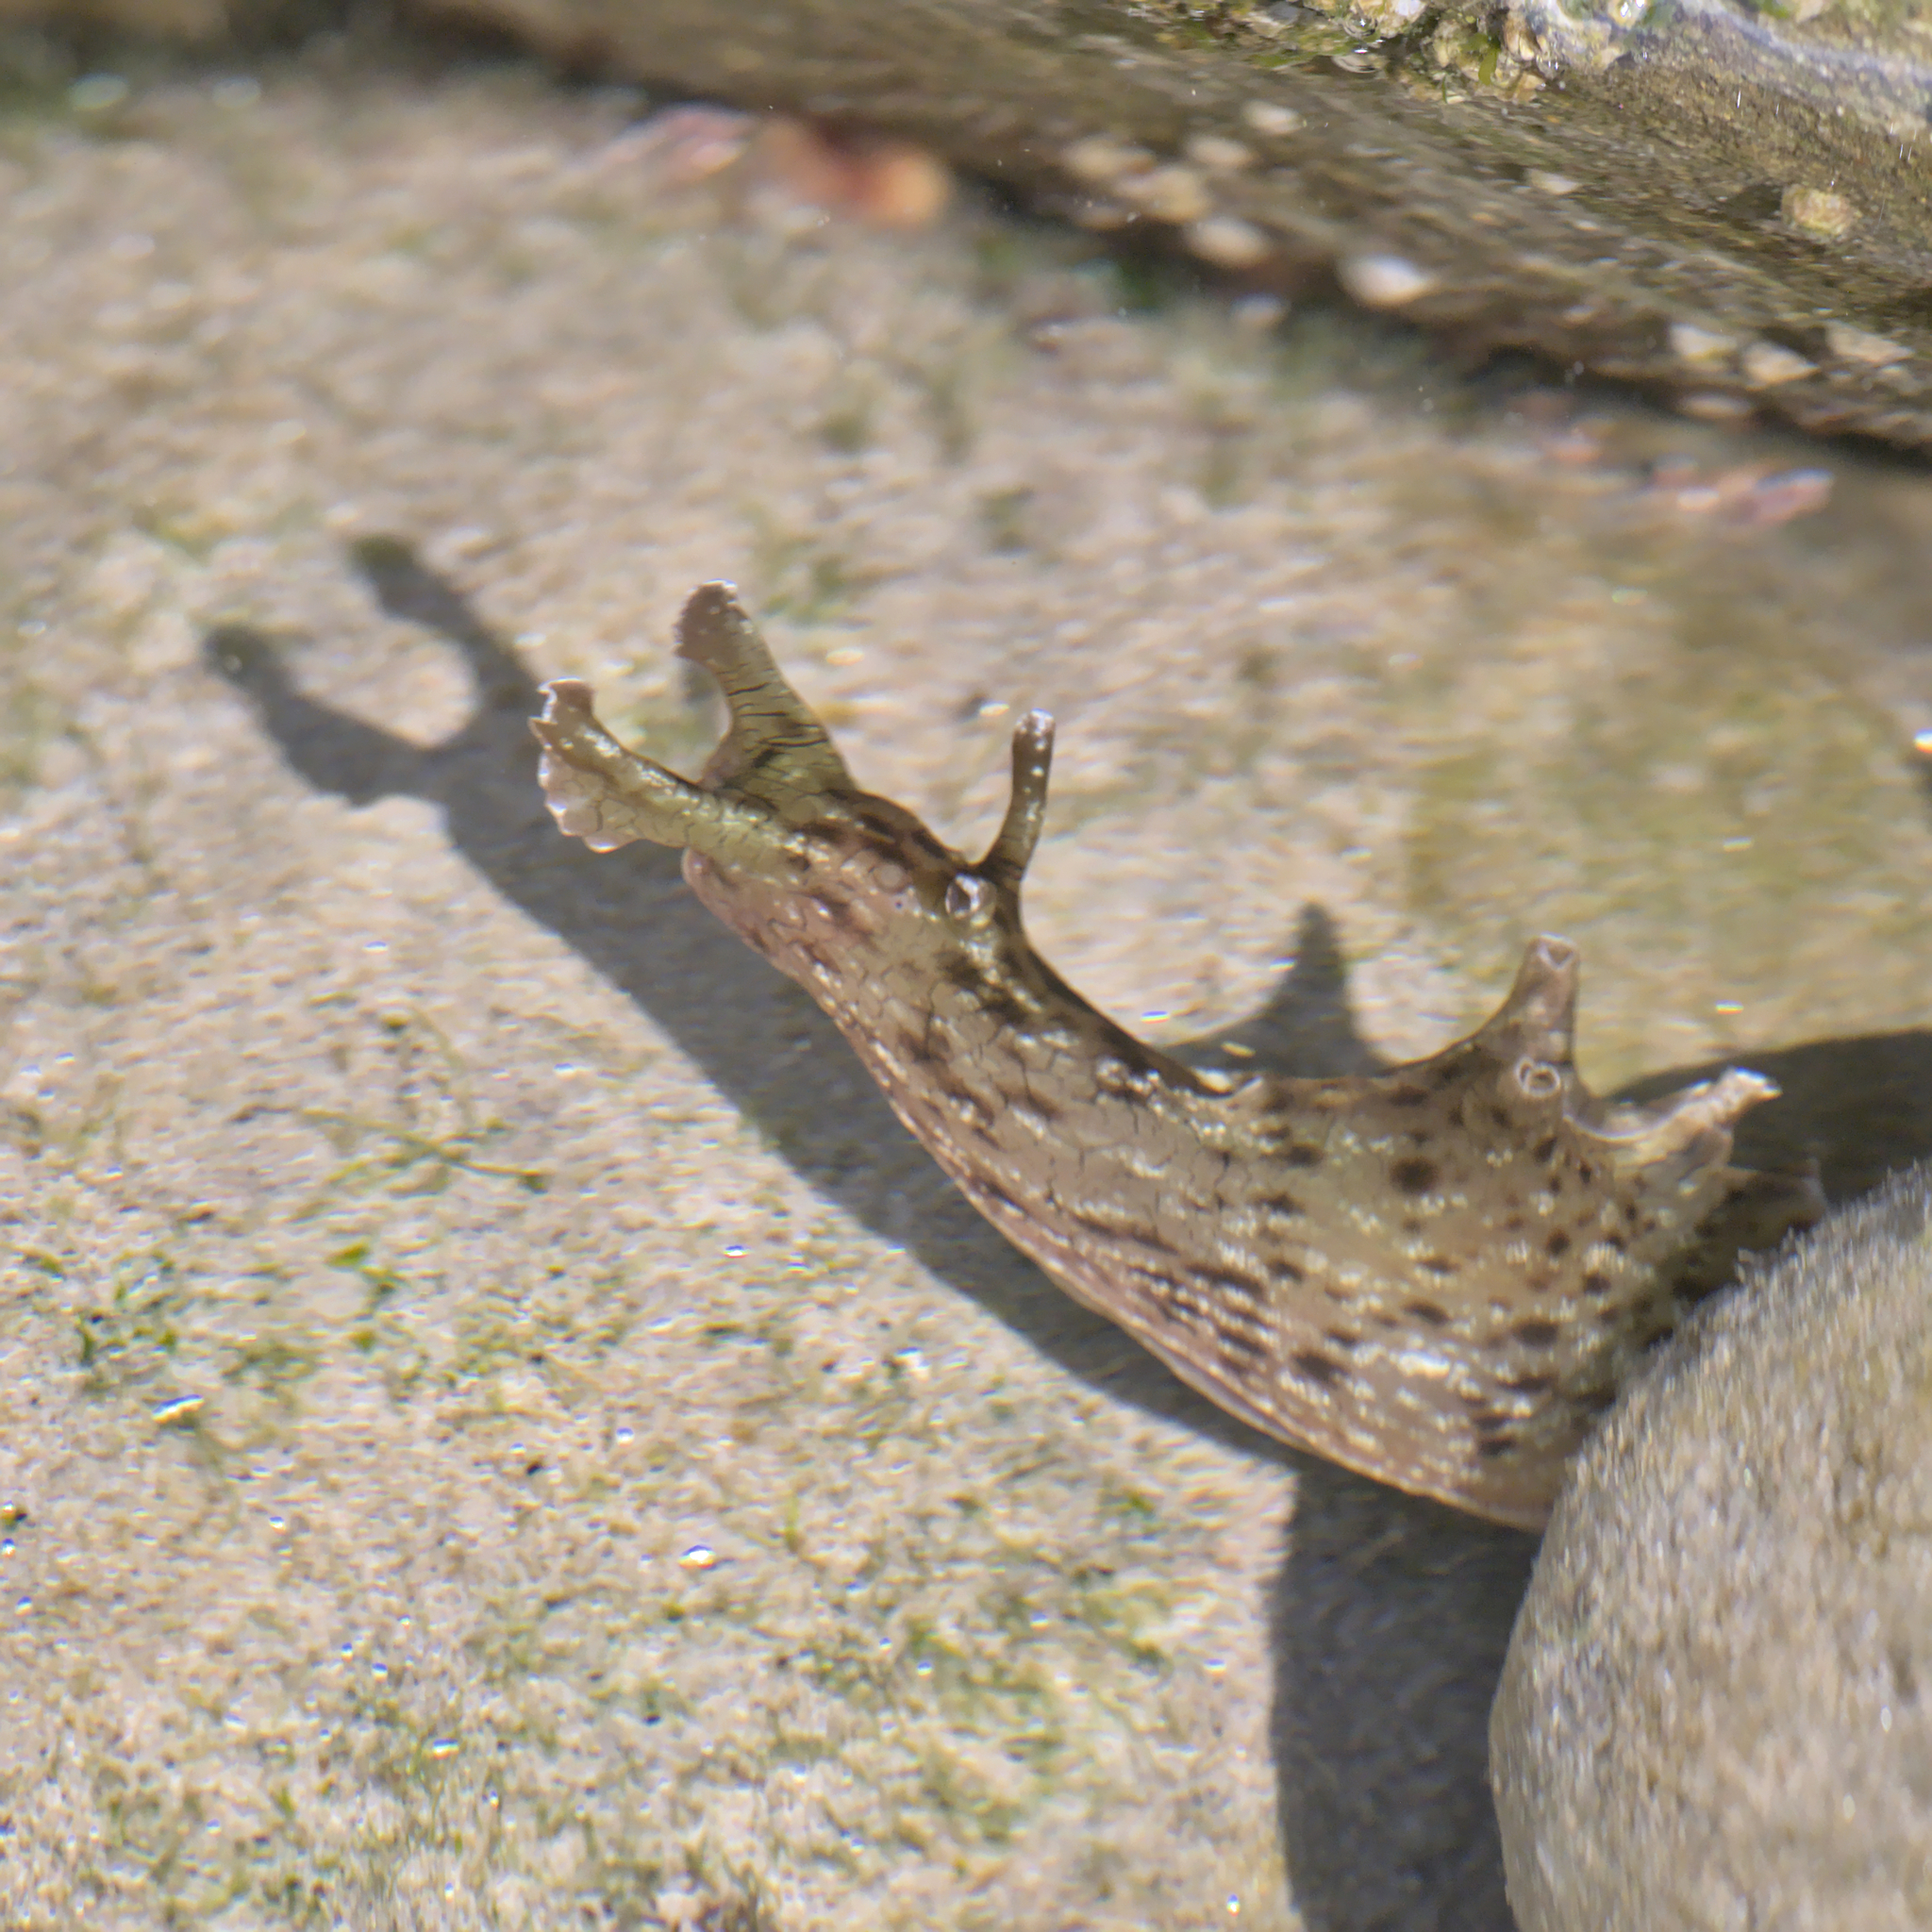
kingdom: Animalia
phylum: Mollusca
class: Gastropoda
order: Aplysiida
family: Aplysiidae
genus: Aplysia
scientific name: Aplysia californica
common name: California seahare
